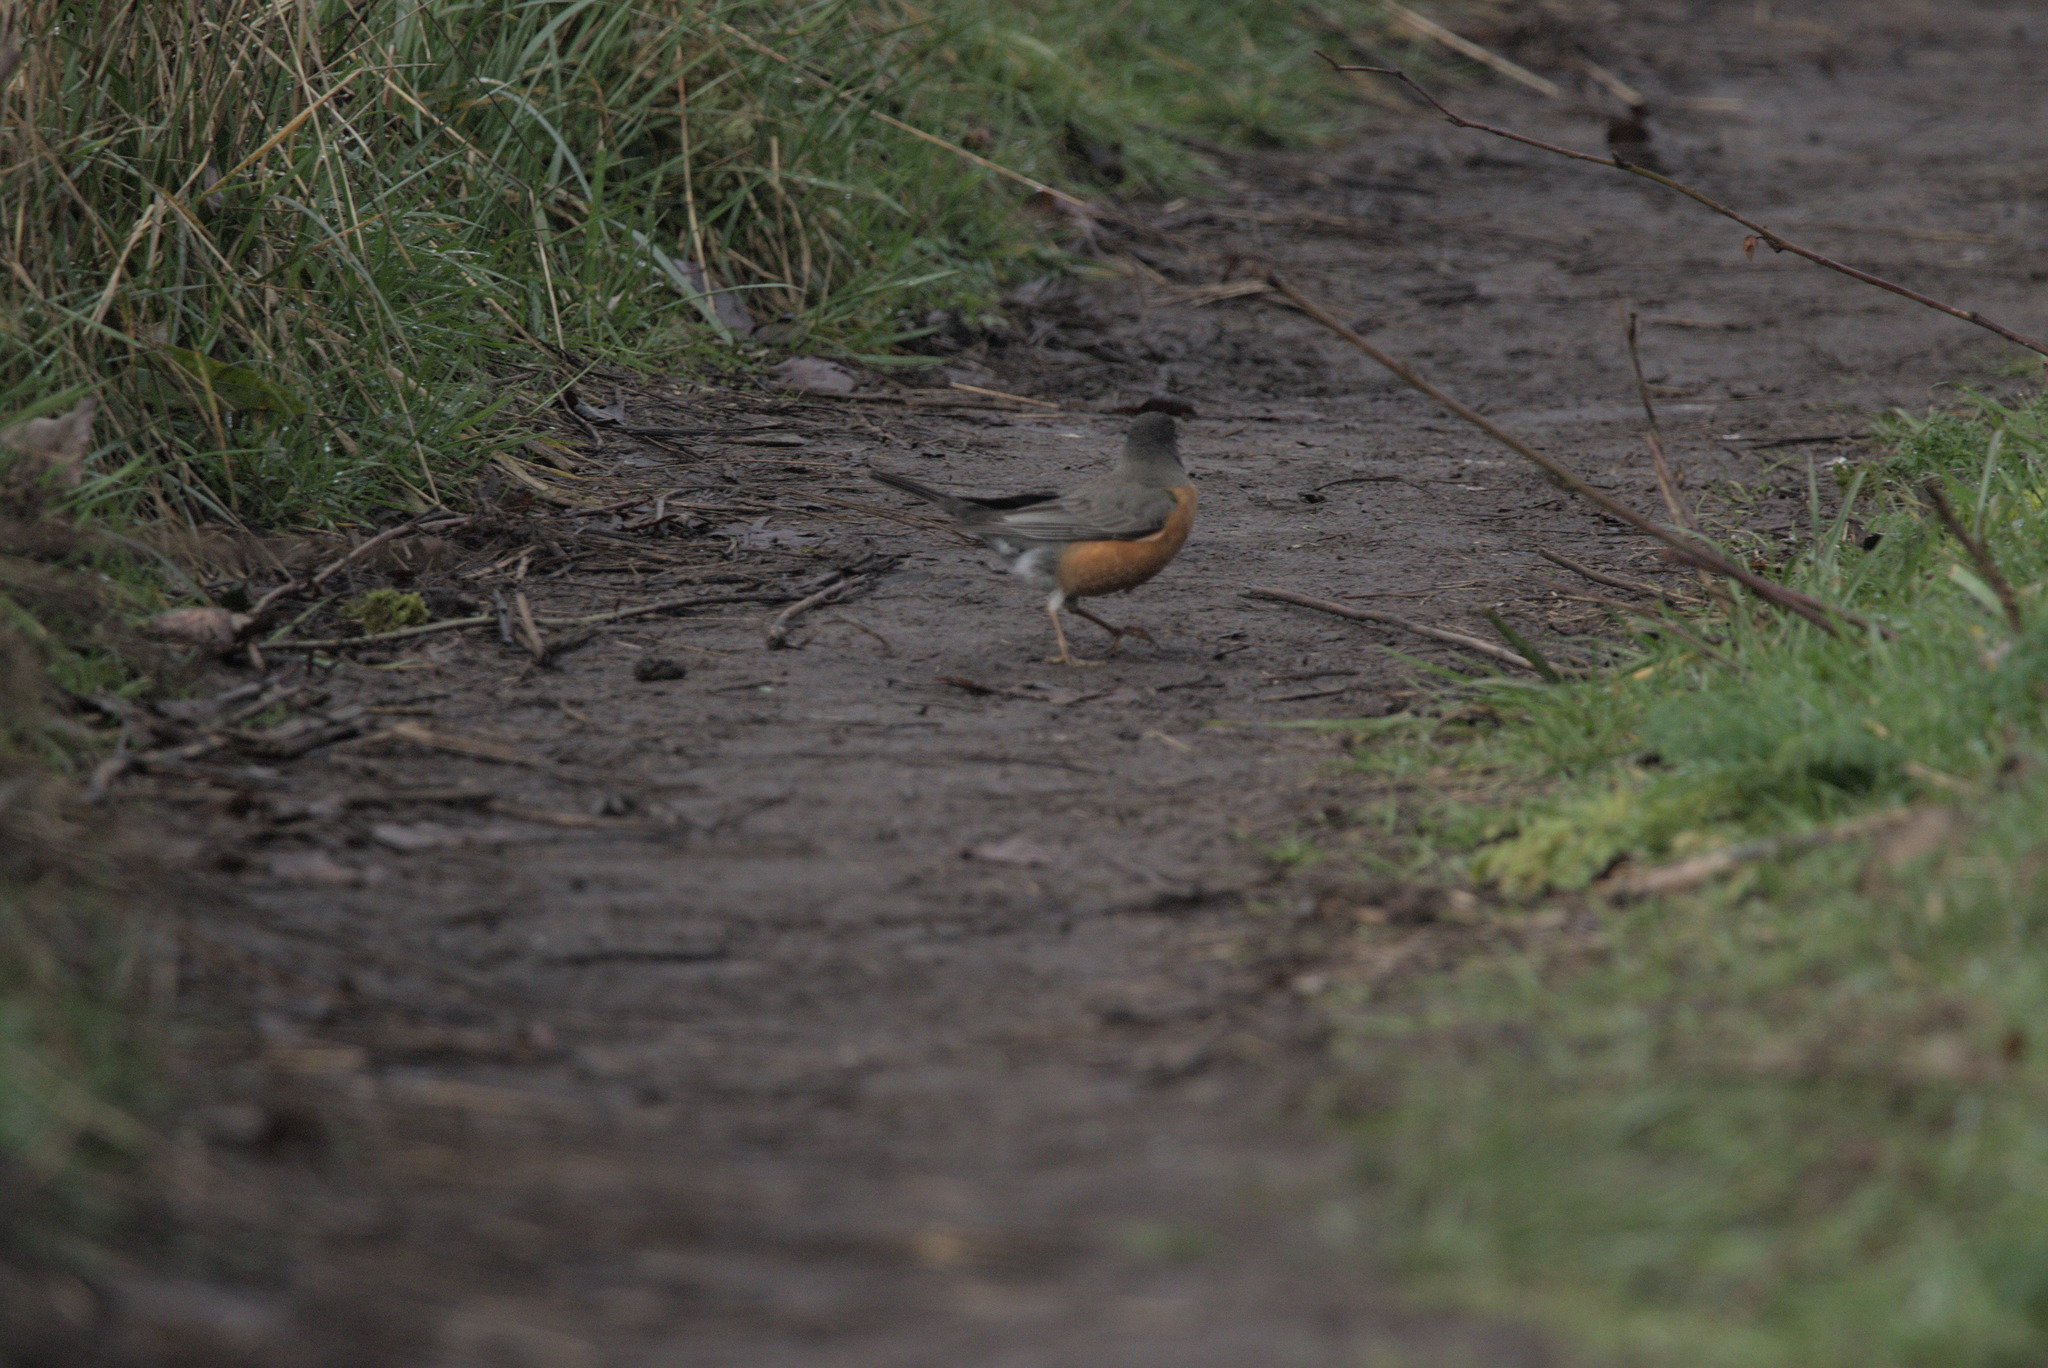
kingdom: Animalia
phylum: Chordata
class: Aves
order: Passeriformes
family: Turdidae
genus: Turdus
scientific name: Turdus migratorius
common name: American robin
